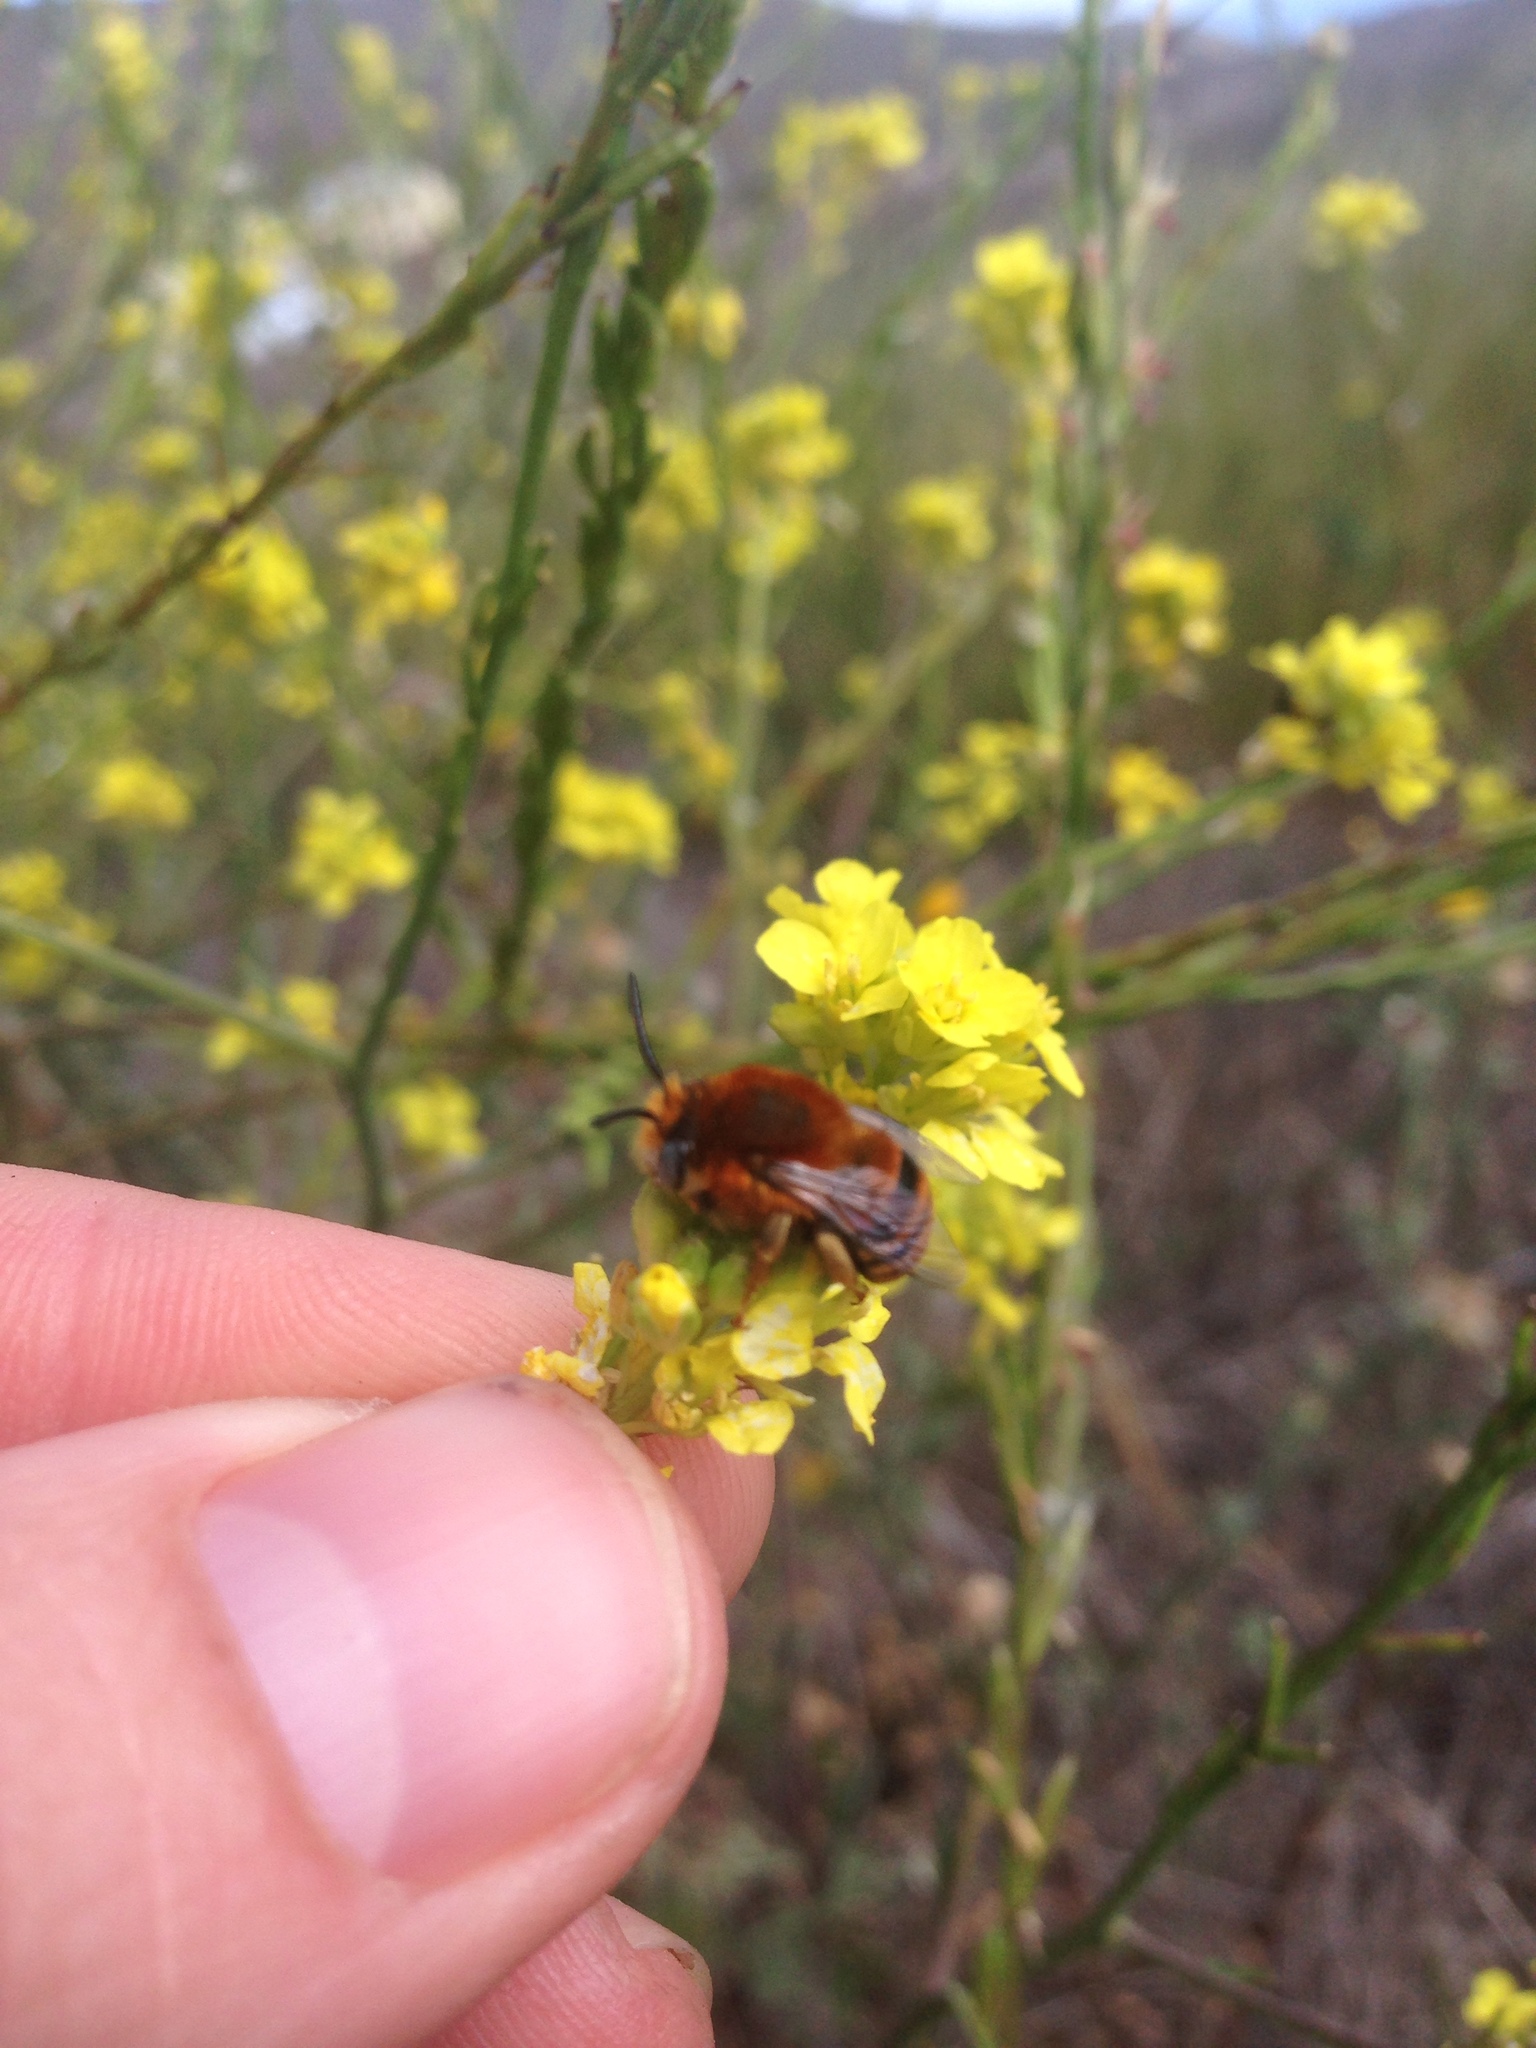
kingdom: Animalia
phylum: Arthropoda
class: Insecta
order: Hymenoptera
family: Apidae
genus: Anthophora
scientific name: Anthophora urbana
